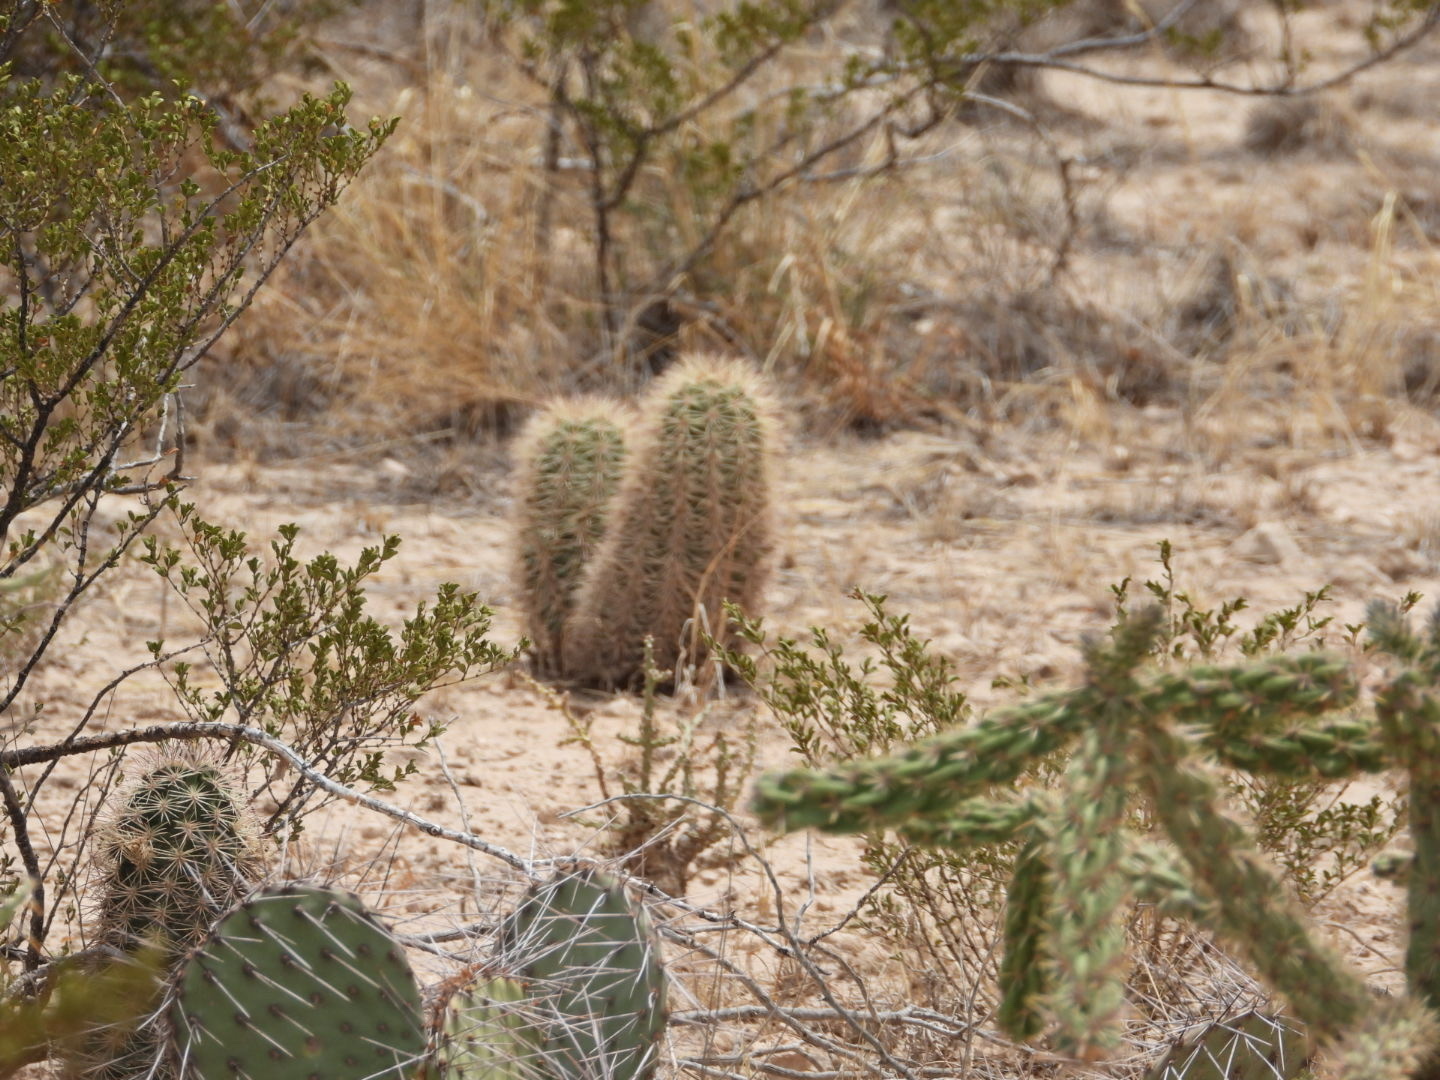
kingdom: Plantae
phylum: Tracheophyta
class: Magnoliopsida
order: Caryophyllales
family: Cactaceae
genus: Echinocereus
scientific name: Echinocereus roetteri
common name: Lloyd's hedgehog cactus
